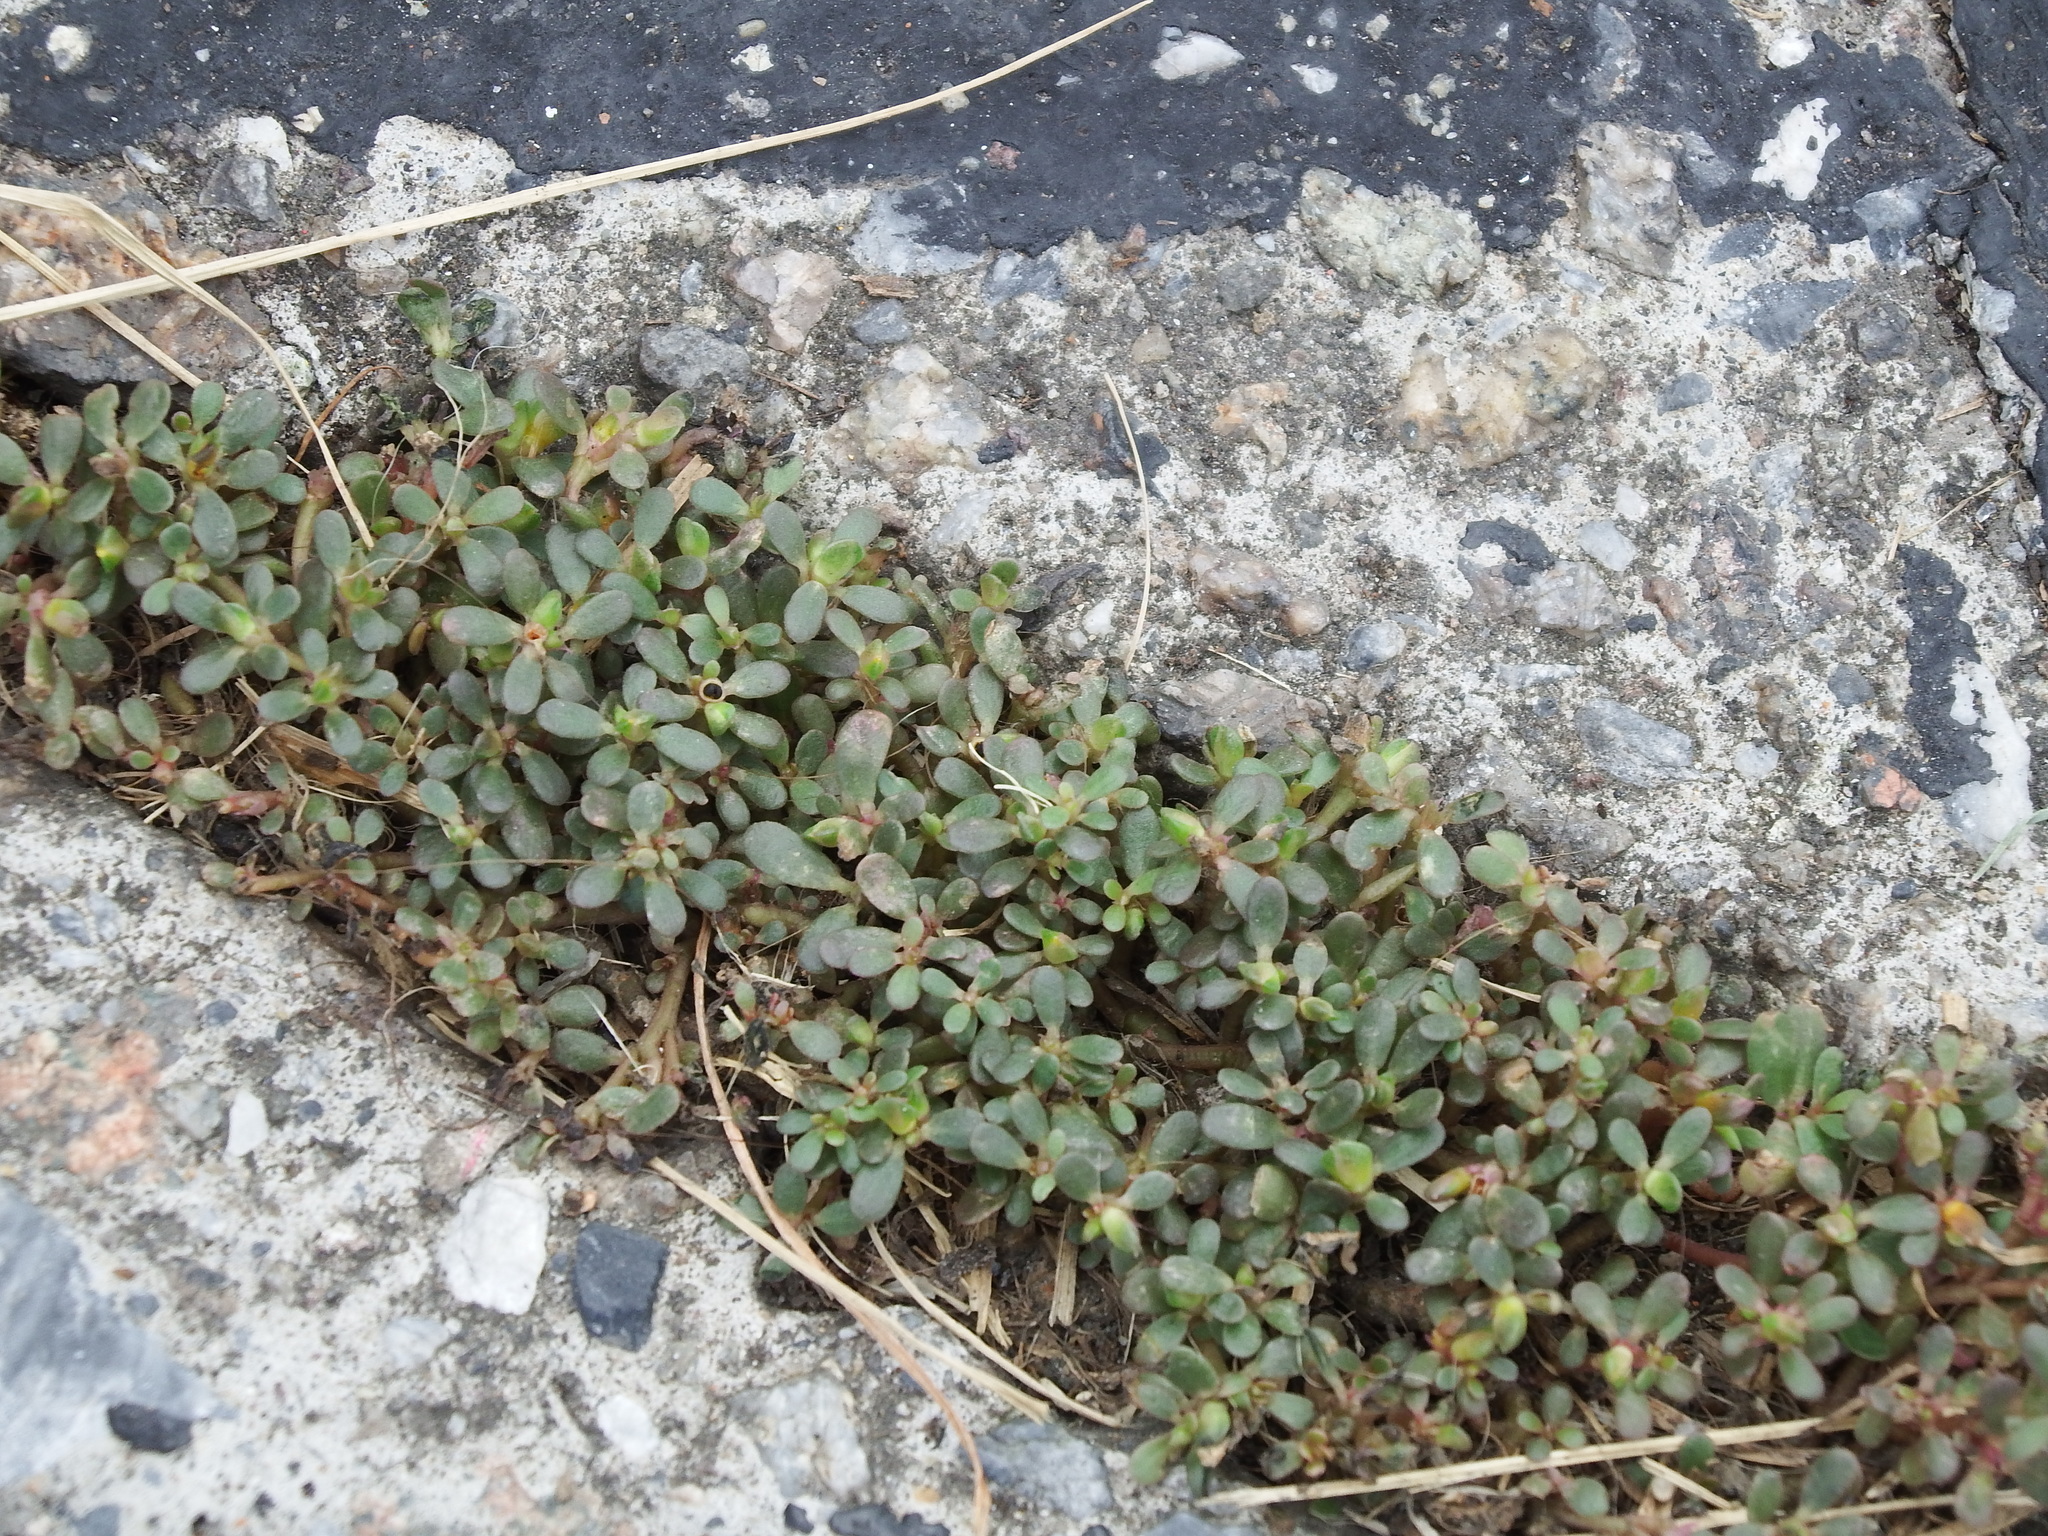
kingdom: Plantae
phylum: Tracheophyta
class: Magnoliopsida
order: Caryophyllales
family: Portulacaceae
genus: Portulaca
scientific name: Portulaca oleracea
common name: Common purslane
